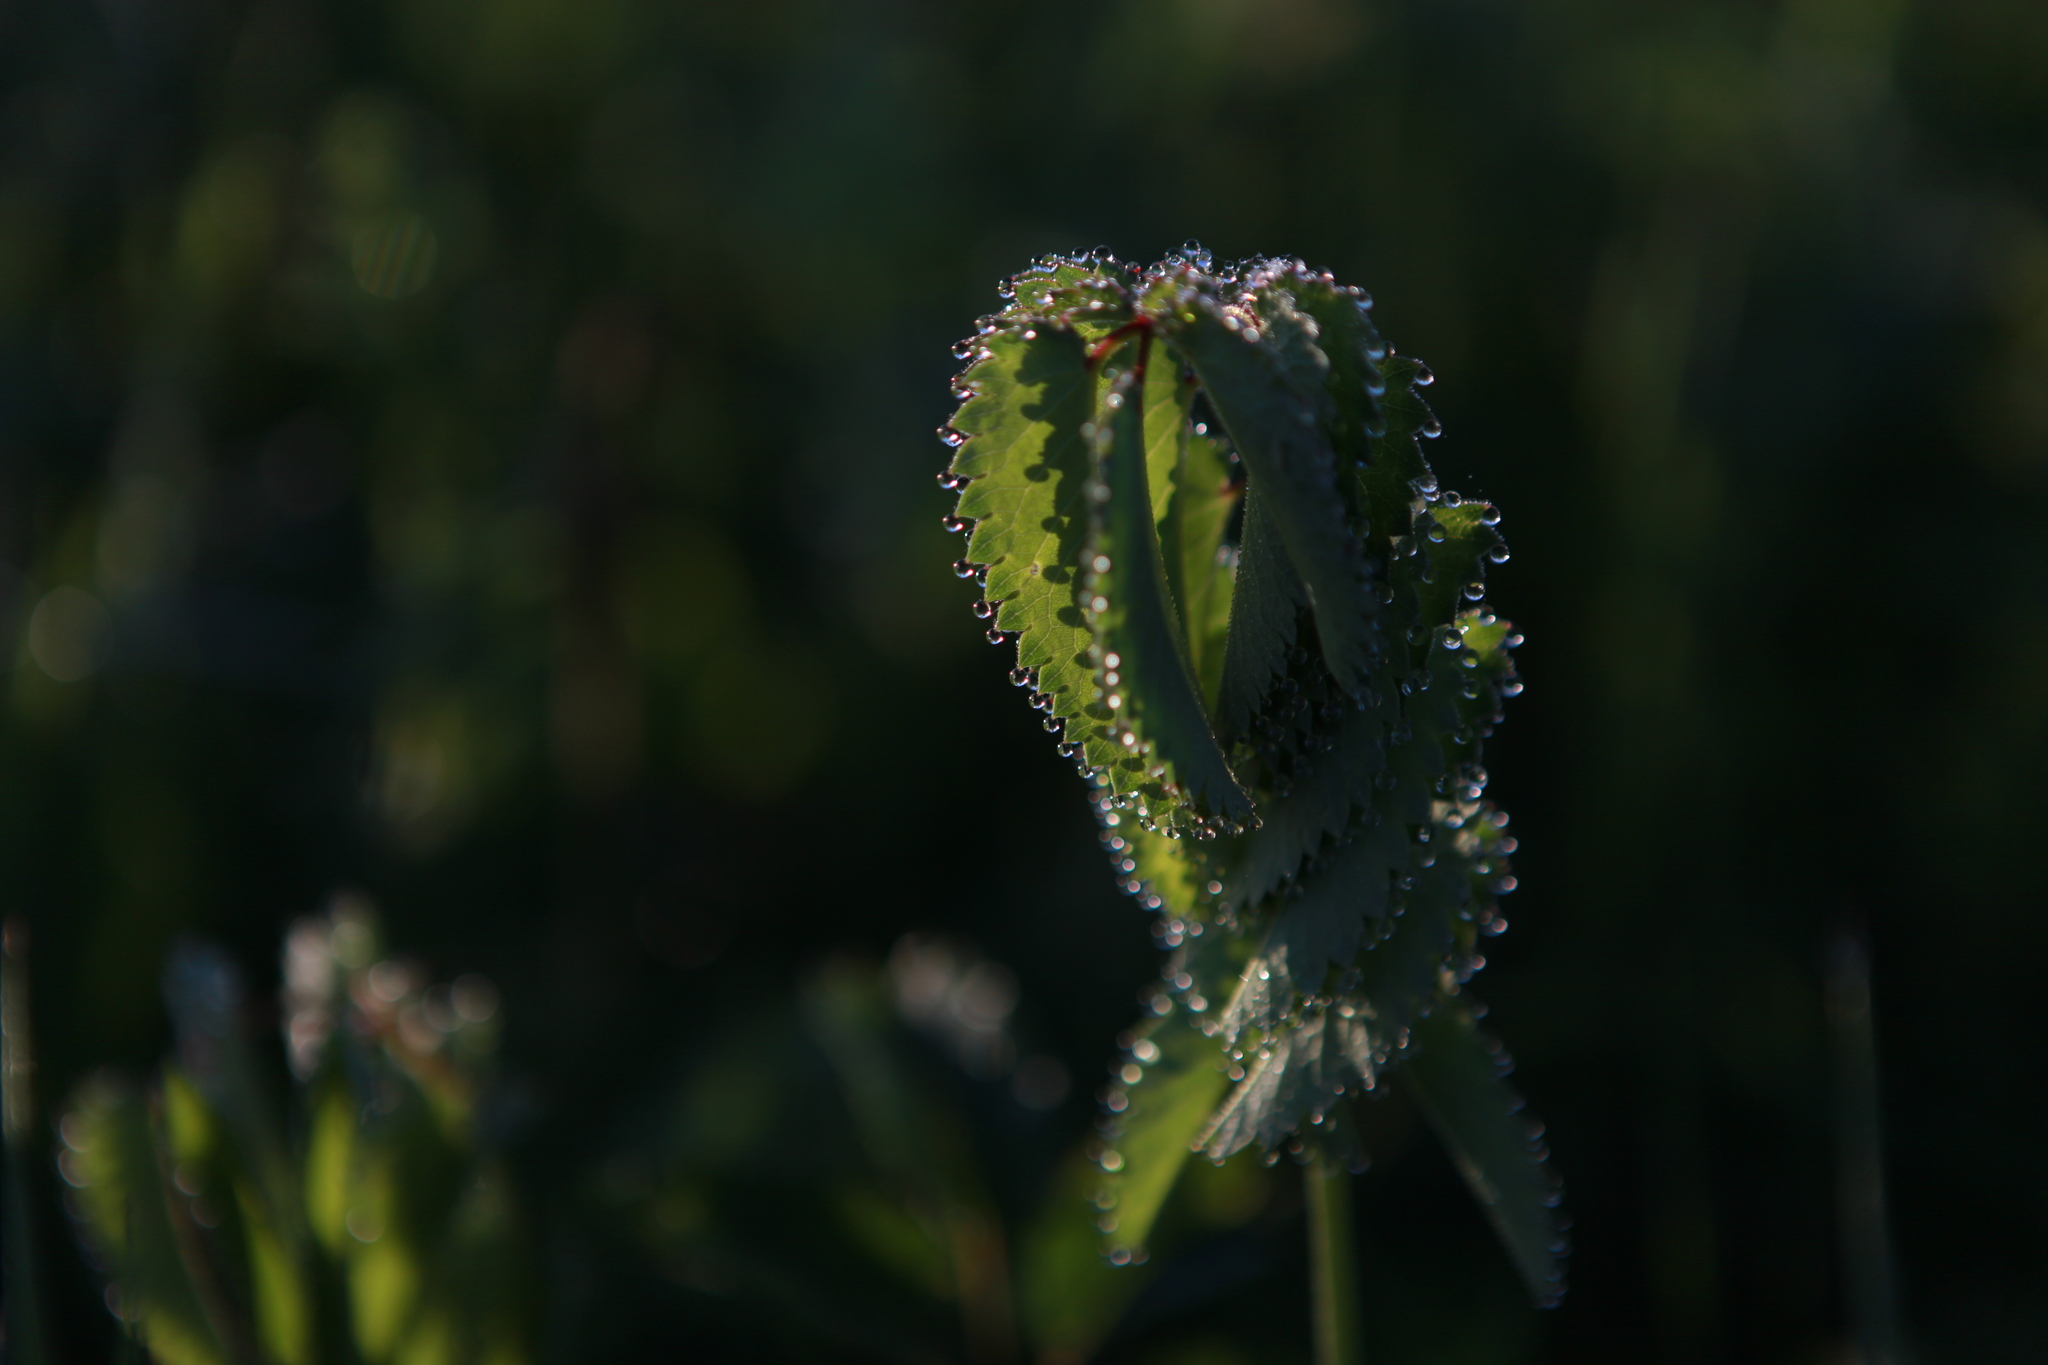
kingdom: Plantae
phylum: Tracheophyta
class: Magnoliopsida
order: Rosales
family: Rosaceae
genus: Sanguisorba
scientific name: Sanguisorba officinalis
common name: Great burnet
